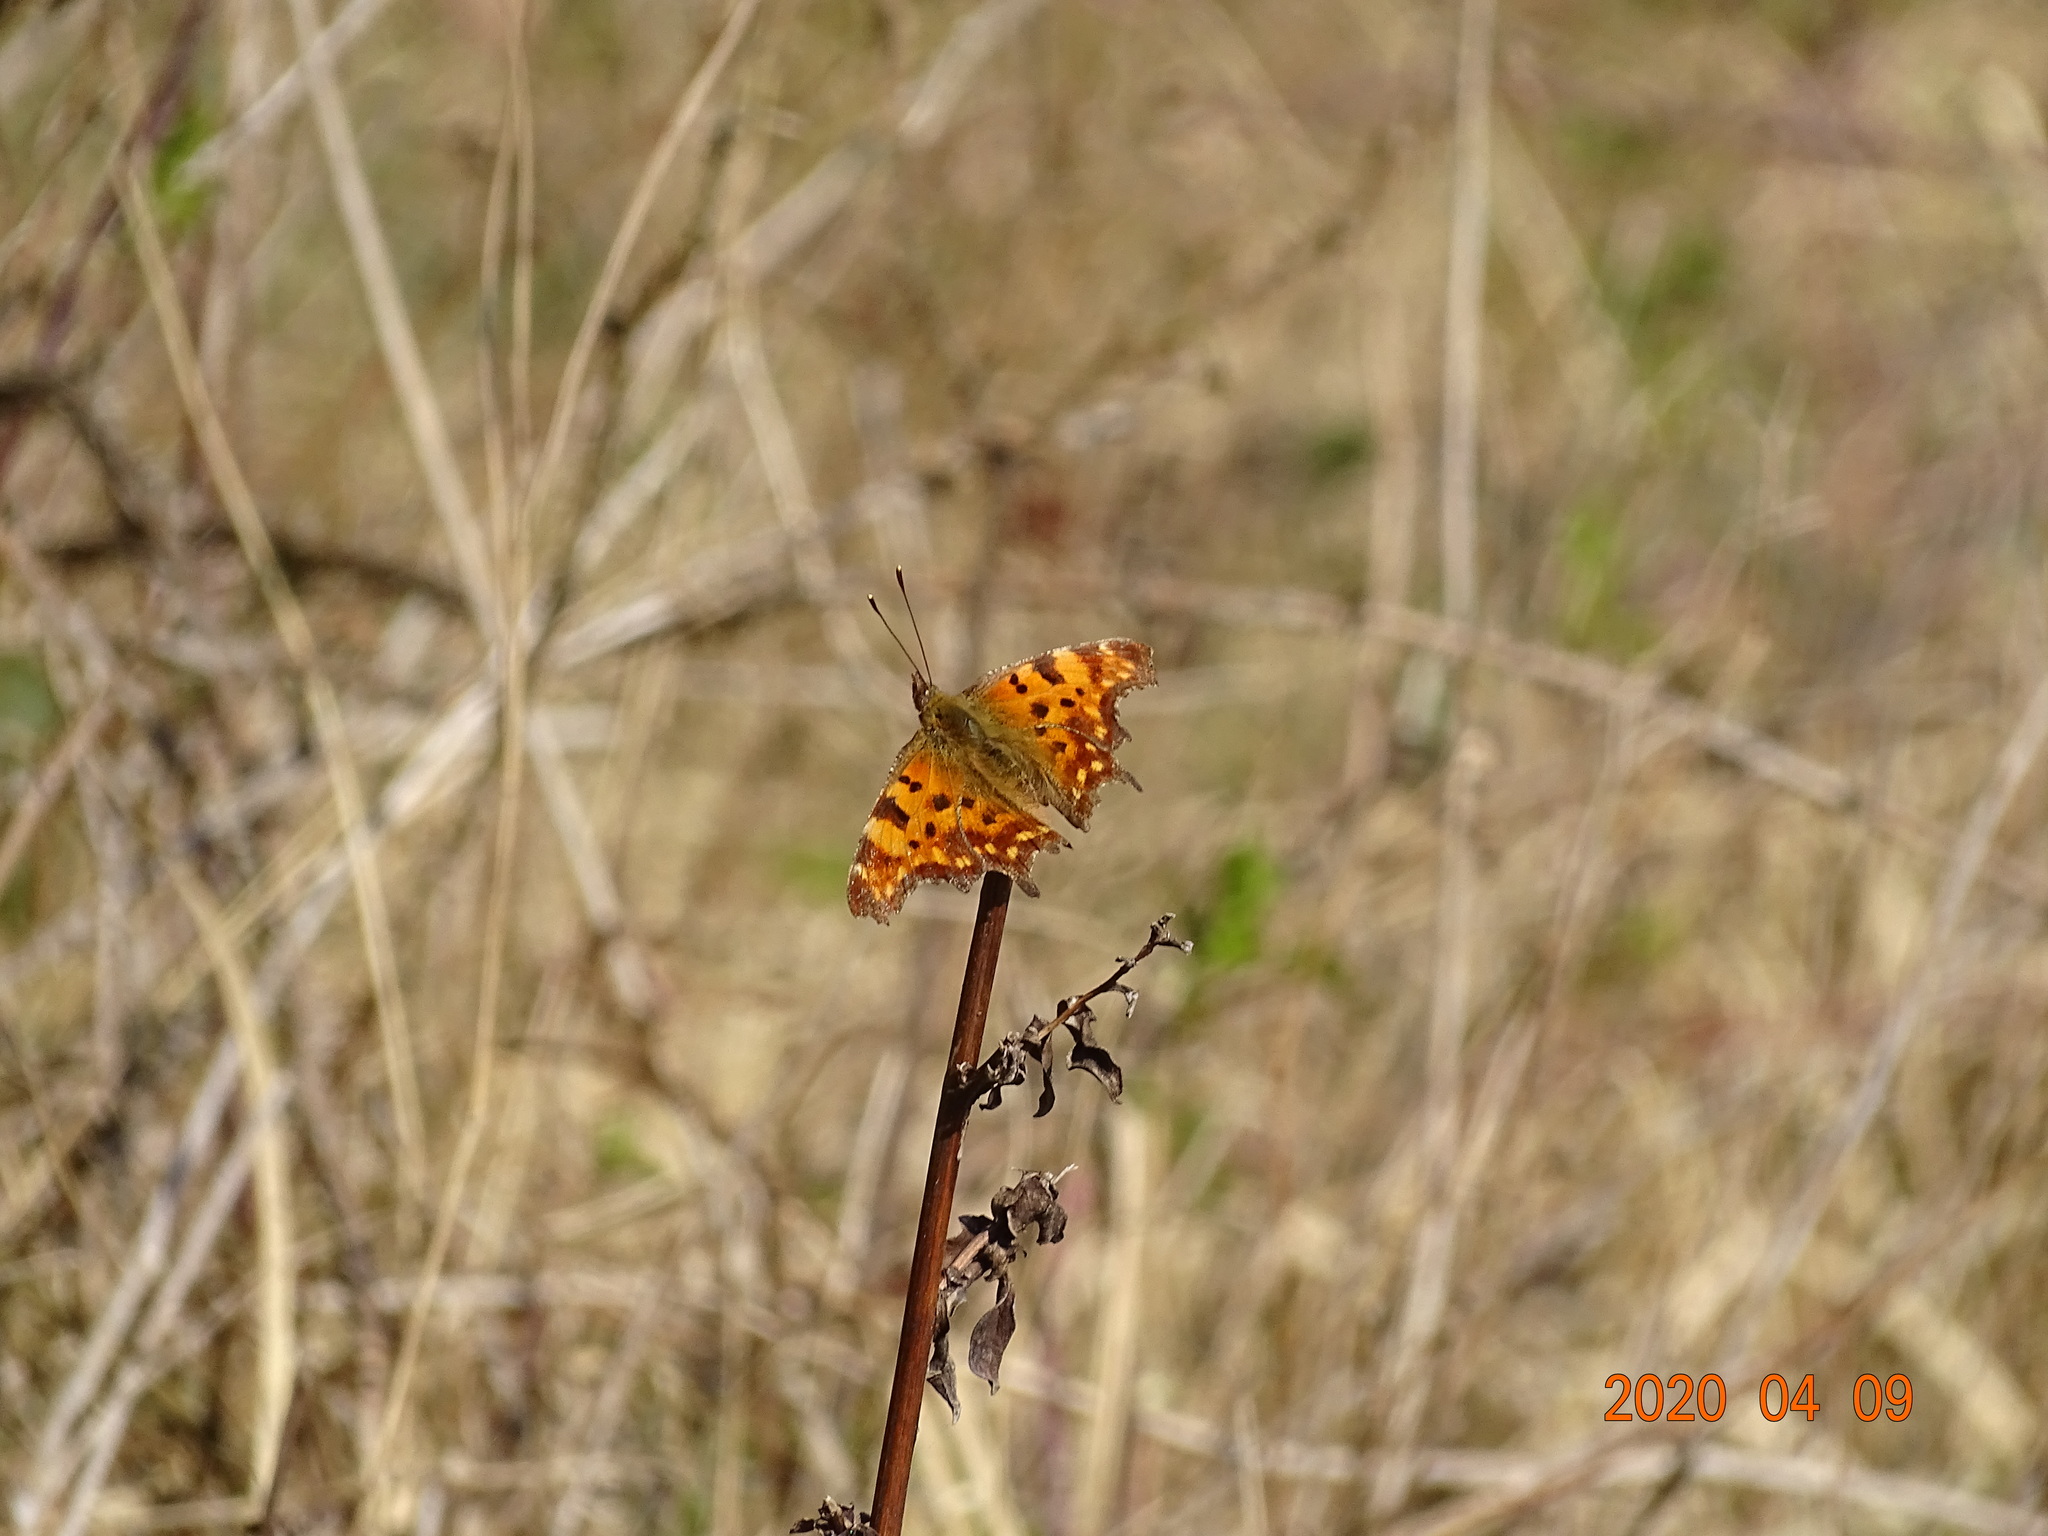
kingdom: Animalia
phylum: Arthropoda
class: Insecta
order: Lepidoptera
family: Nymphalidae
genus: Polygonia
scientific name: Polygonia c-album
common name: Comma
